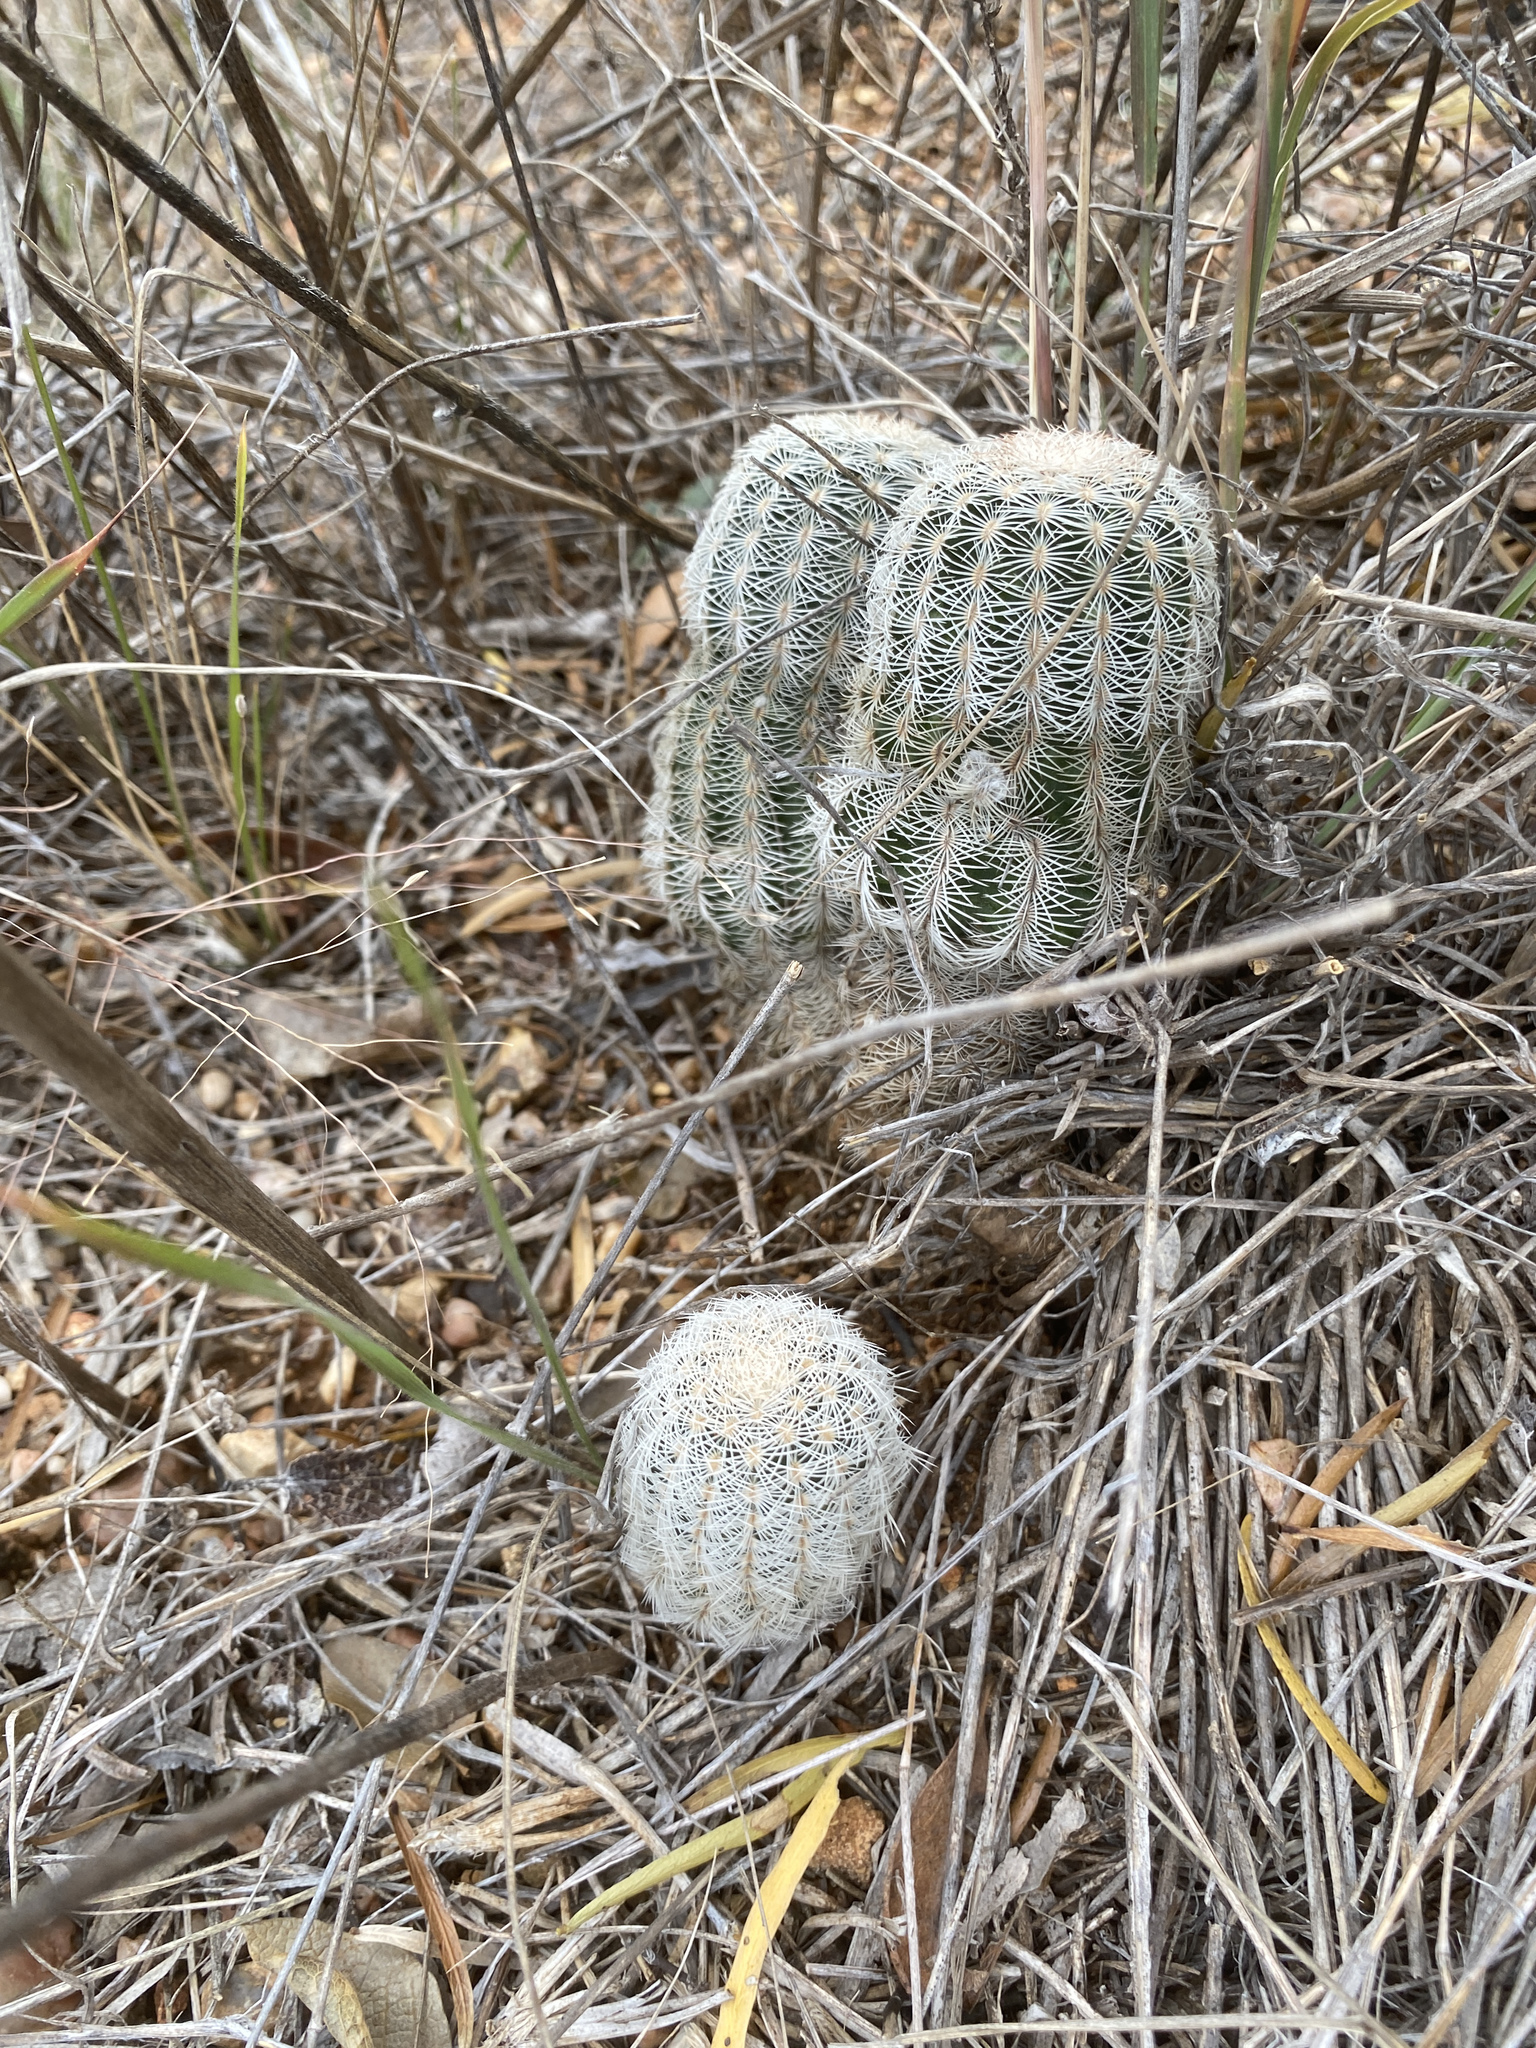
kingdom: Plantae
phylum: Tracheophyta
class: Magnoliopsida
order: Caryophyllales
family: Cactaceae
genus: Echinocereus
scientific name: Echinocereus reichenbachii
